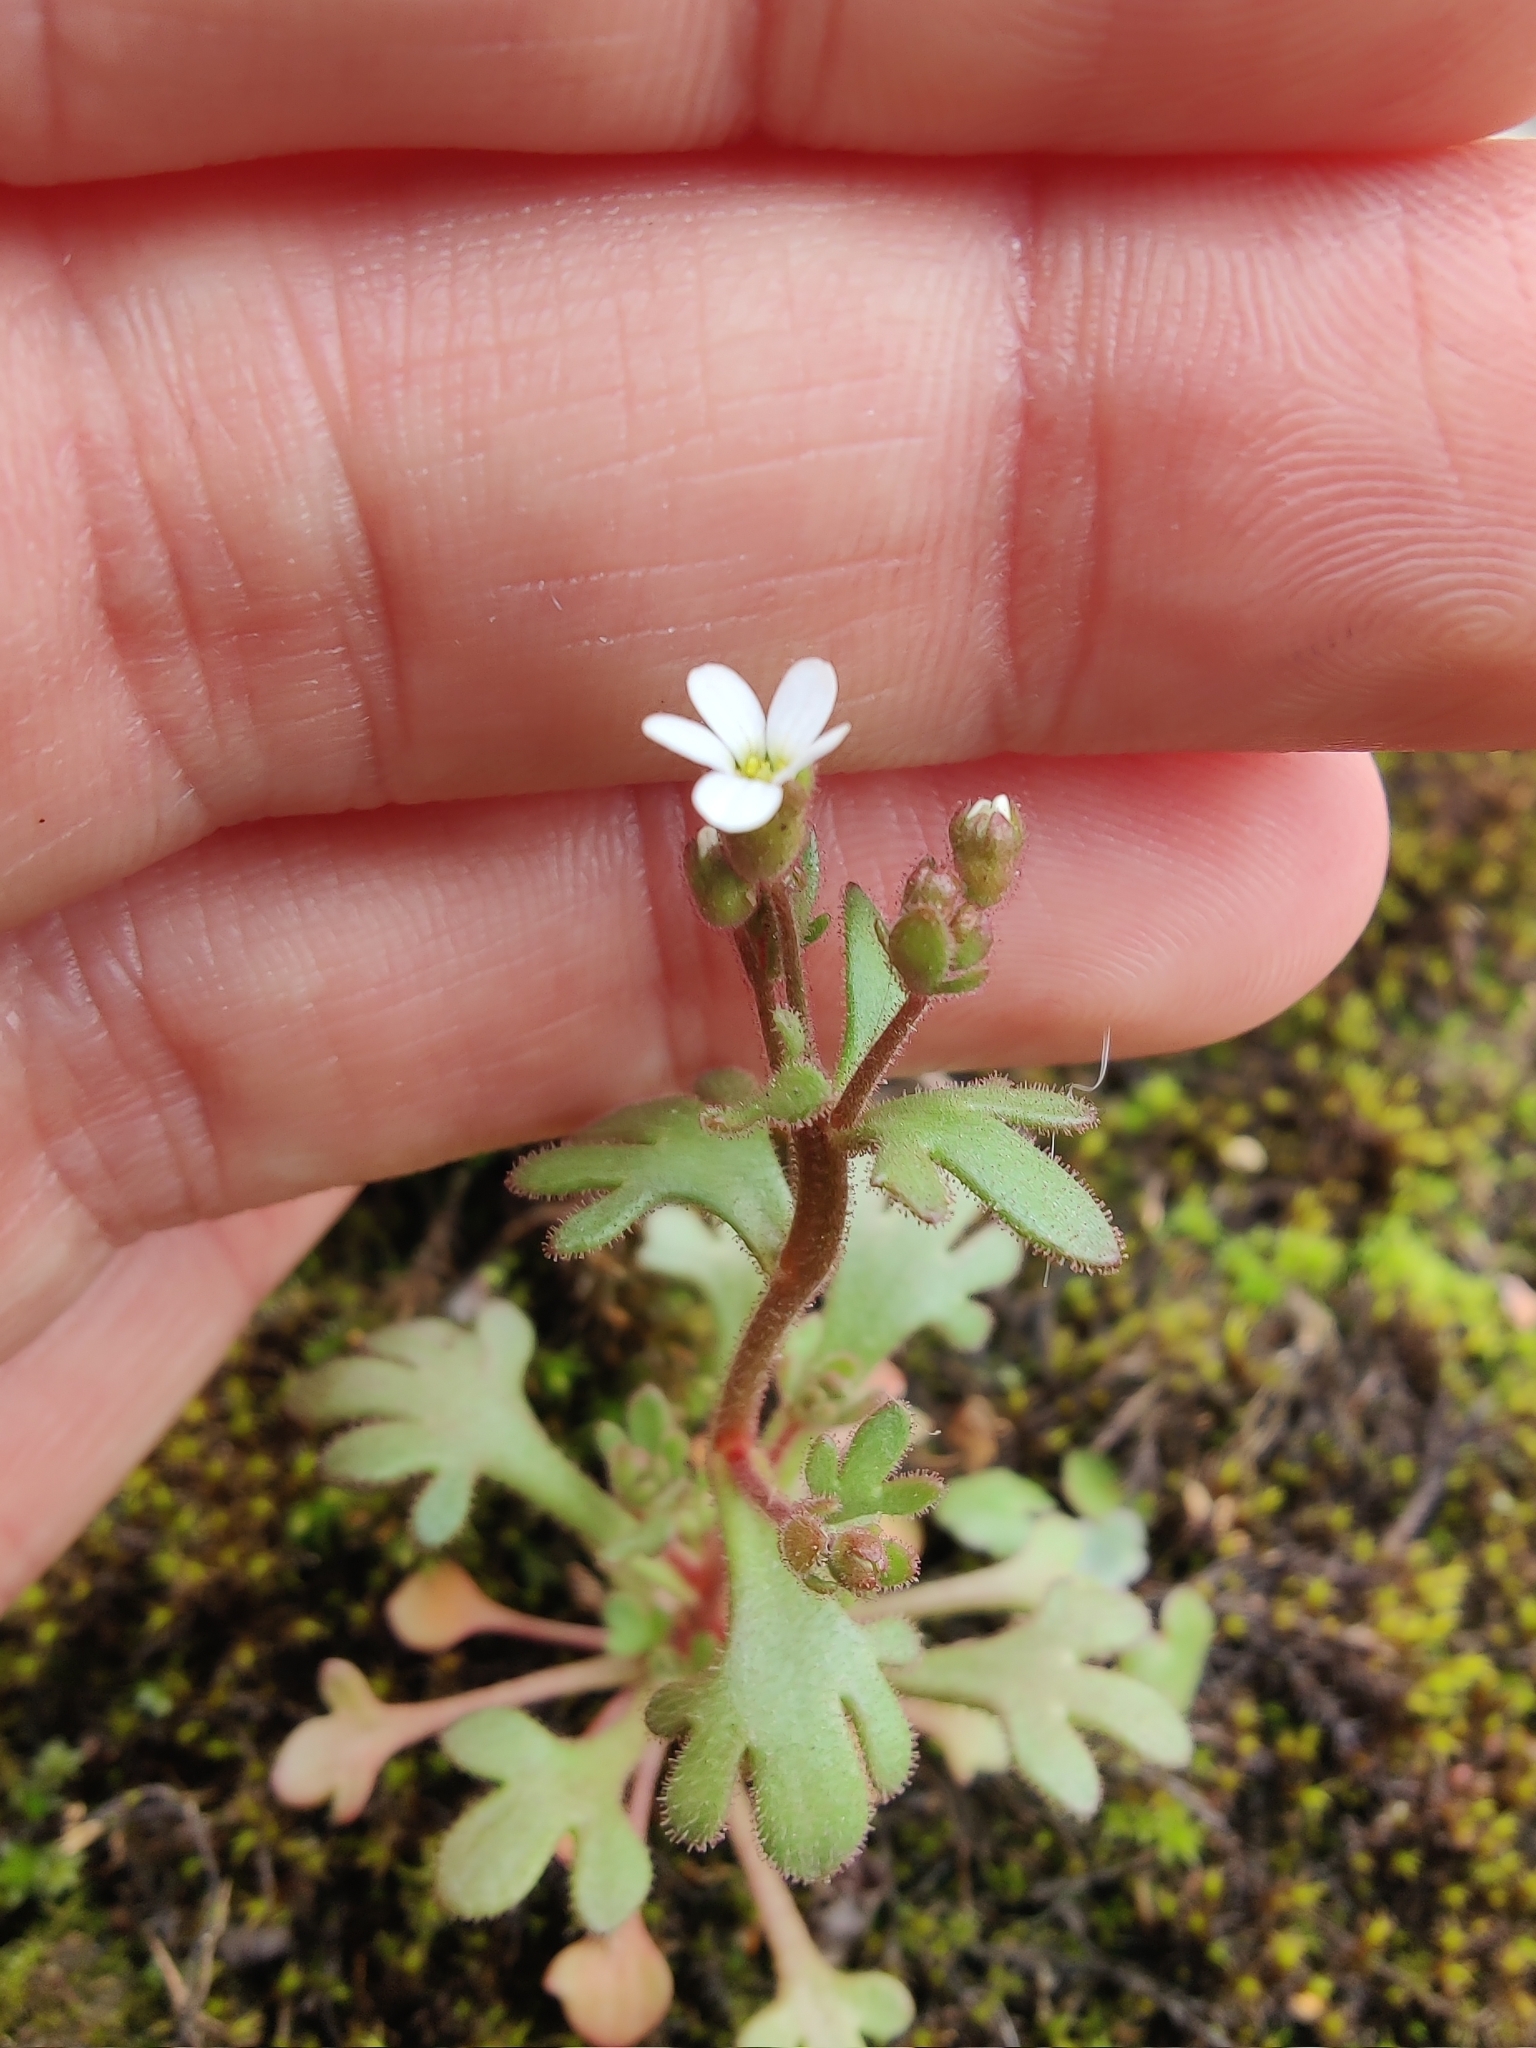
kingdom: Plantae
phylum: Tracheophyta
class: Magnoliopsida
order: Saxifragales
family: Saxifragaceae
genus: Saxifraga
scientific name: Saxifraga tridactylites
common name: Rue-leaved saxifrage
